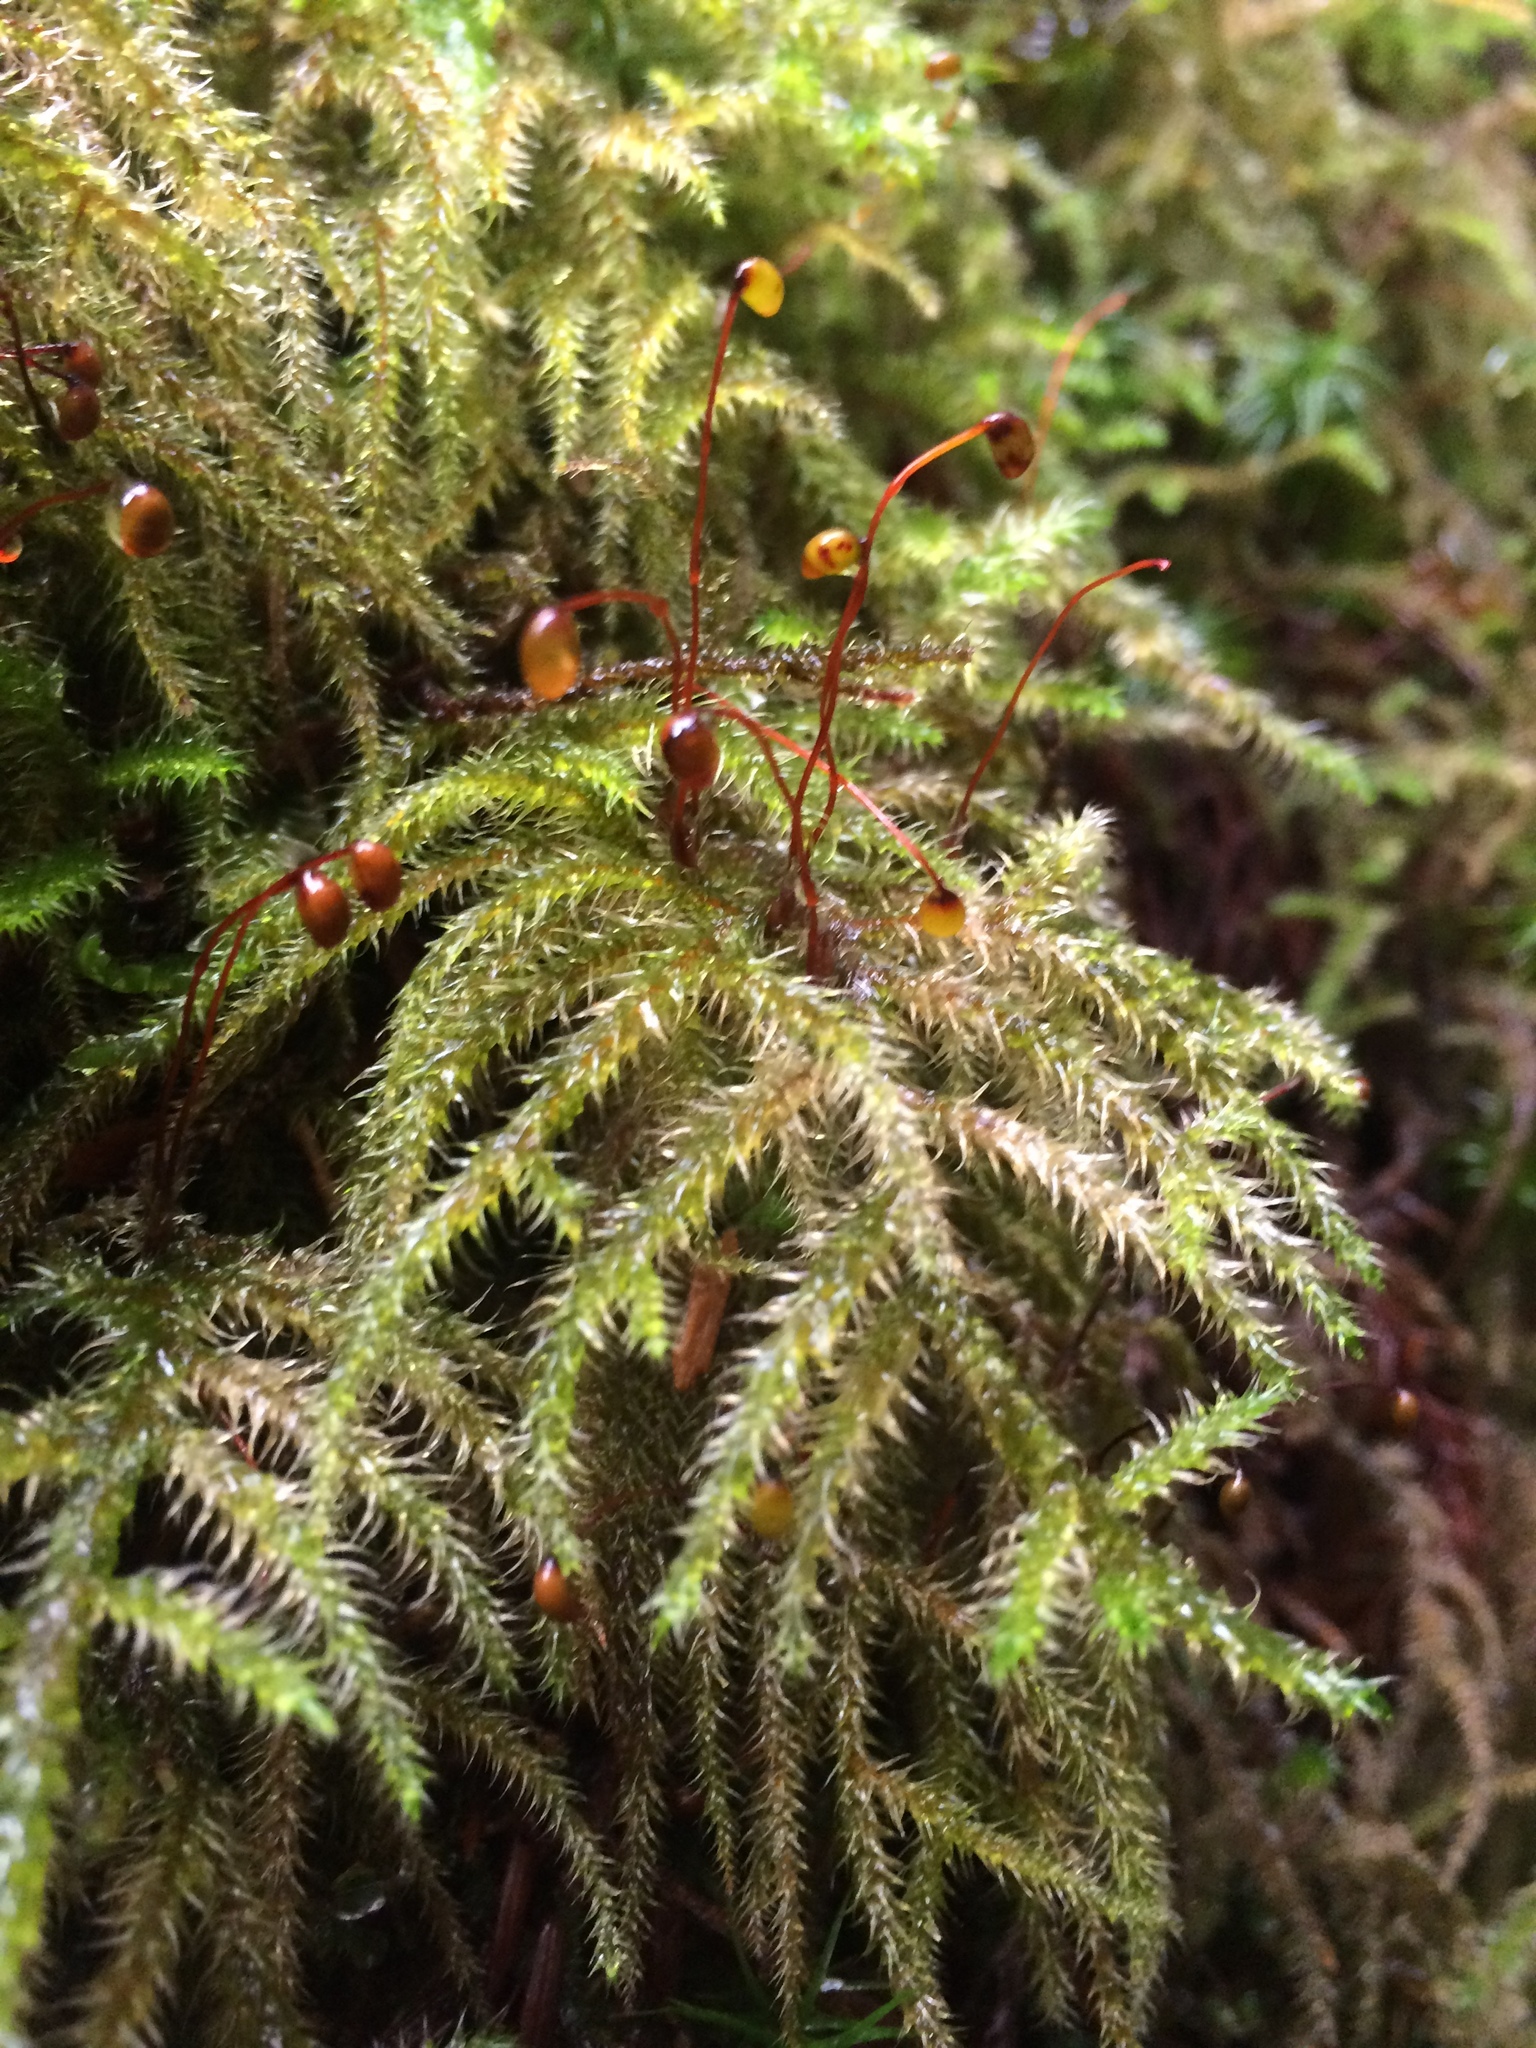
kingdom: Plantae
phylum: Bryophyta
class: Bryopsida
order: Hypnales
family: Hylocomiaceae
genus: Rhytidiadelphus
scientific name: Rhytidiadelphus loreus
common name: Lanky moss
